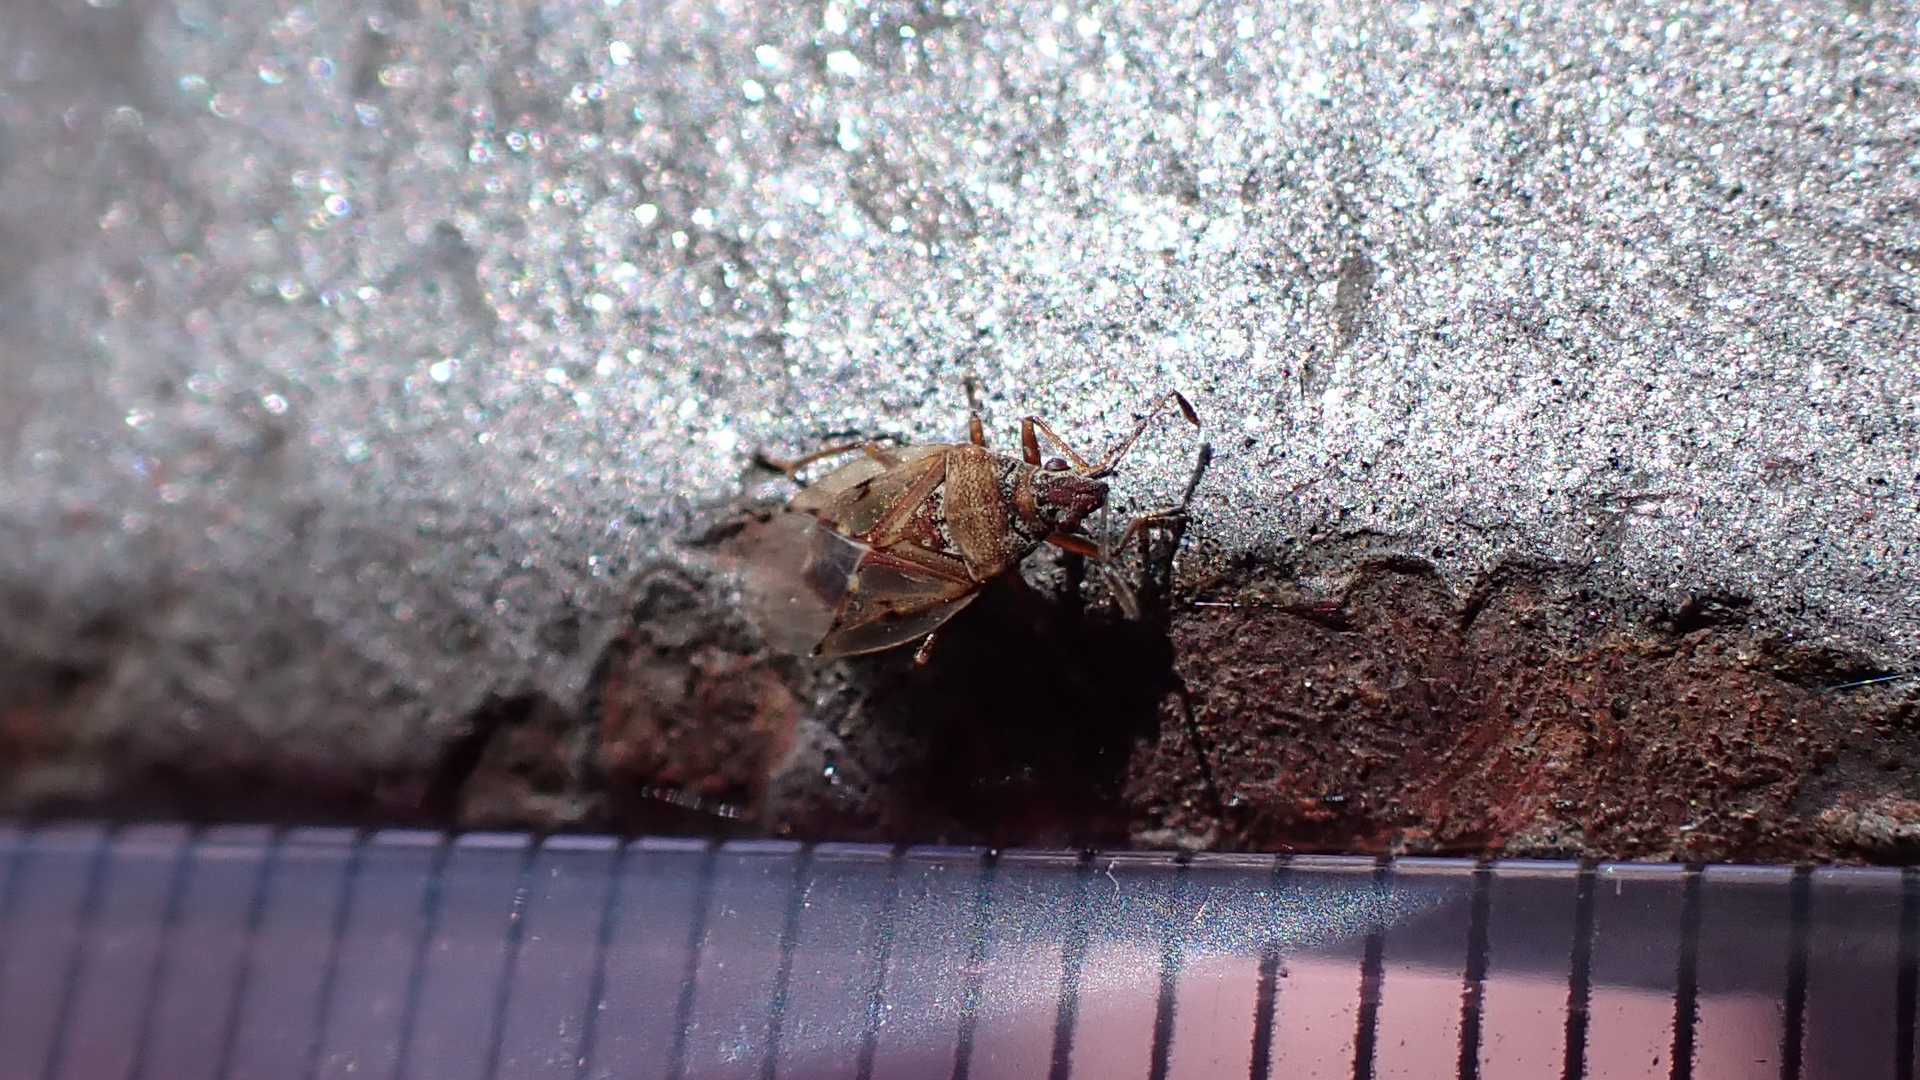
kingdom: Animalia
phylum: Arthropoda
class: Insecta
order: Hemiptera
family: Lygaeidae
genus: Kleidocerys
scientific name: Kleidocerys resedae
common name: Birch catkin bug
